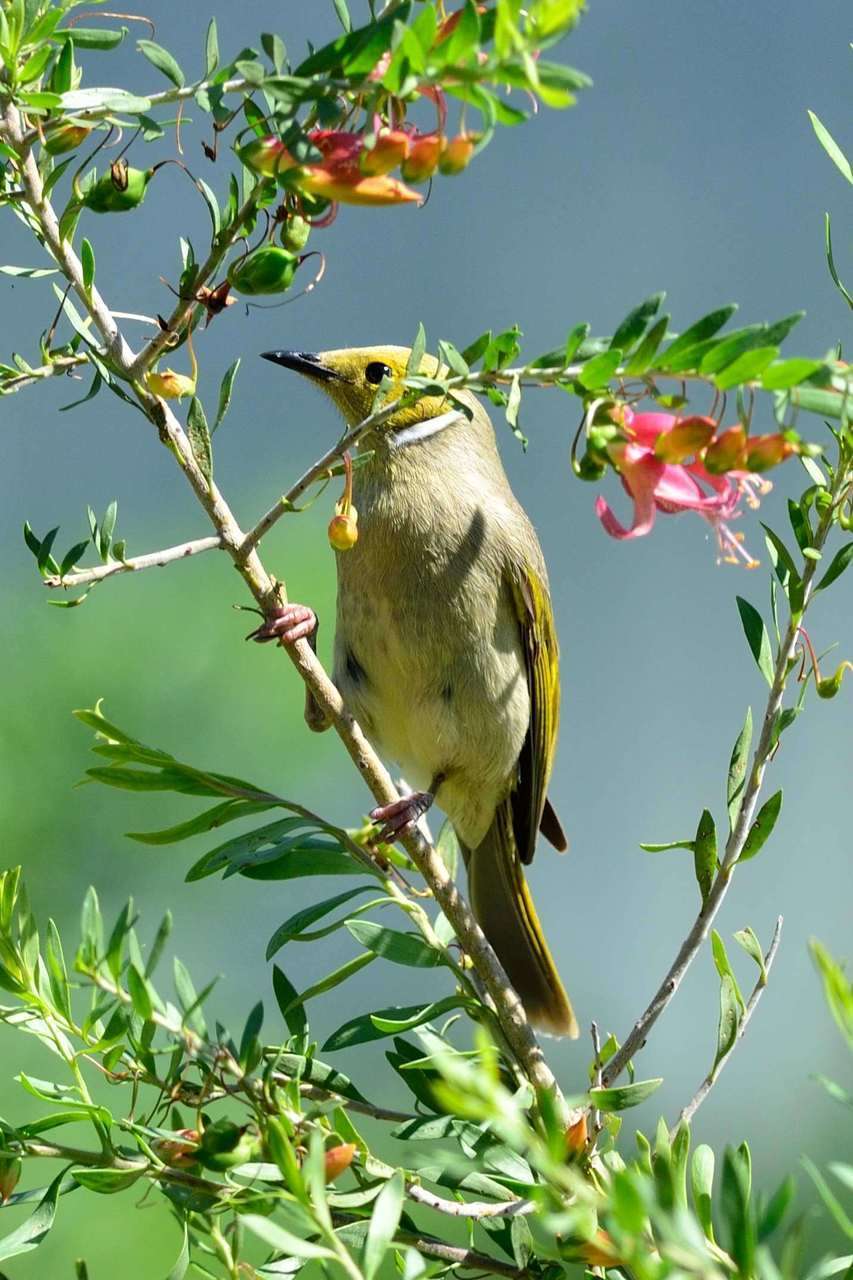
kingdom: Animalia
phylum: Chordata
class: Aves
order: Passeriformes
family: Meliphagidae
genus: Ptilotula
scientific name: Ptilotula penicillata
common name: White-plumed honeyeater
